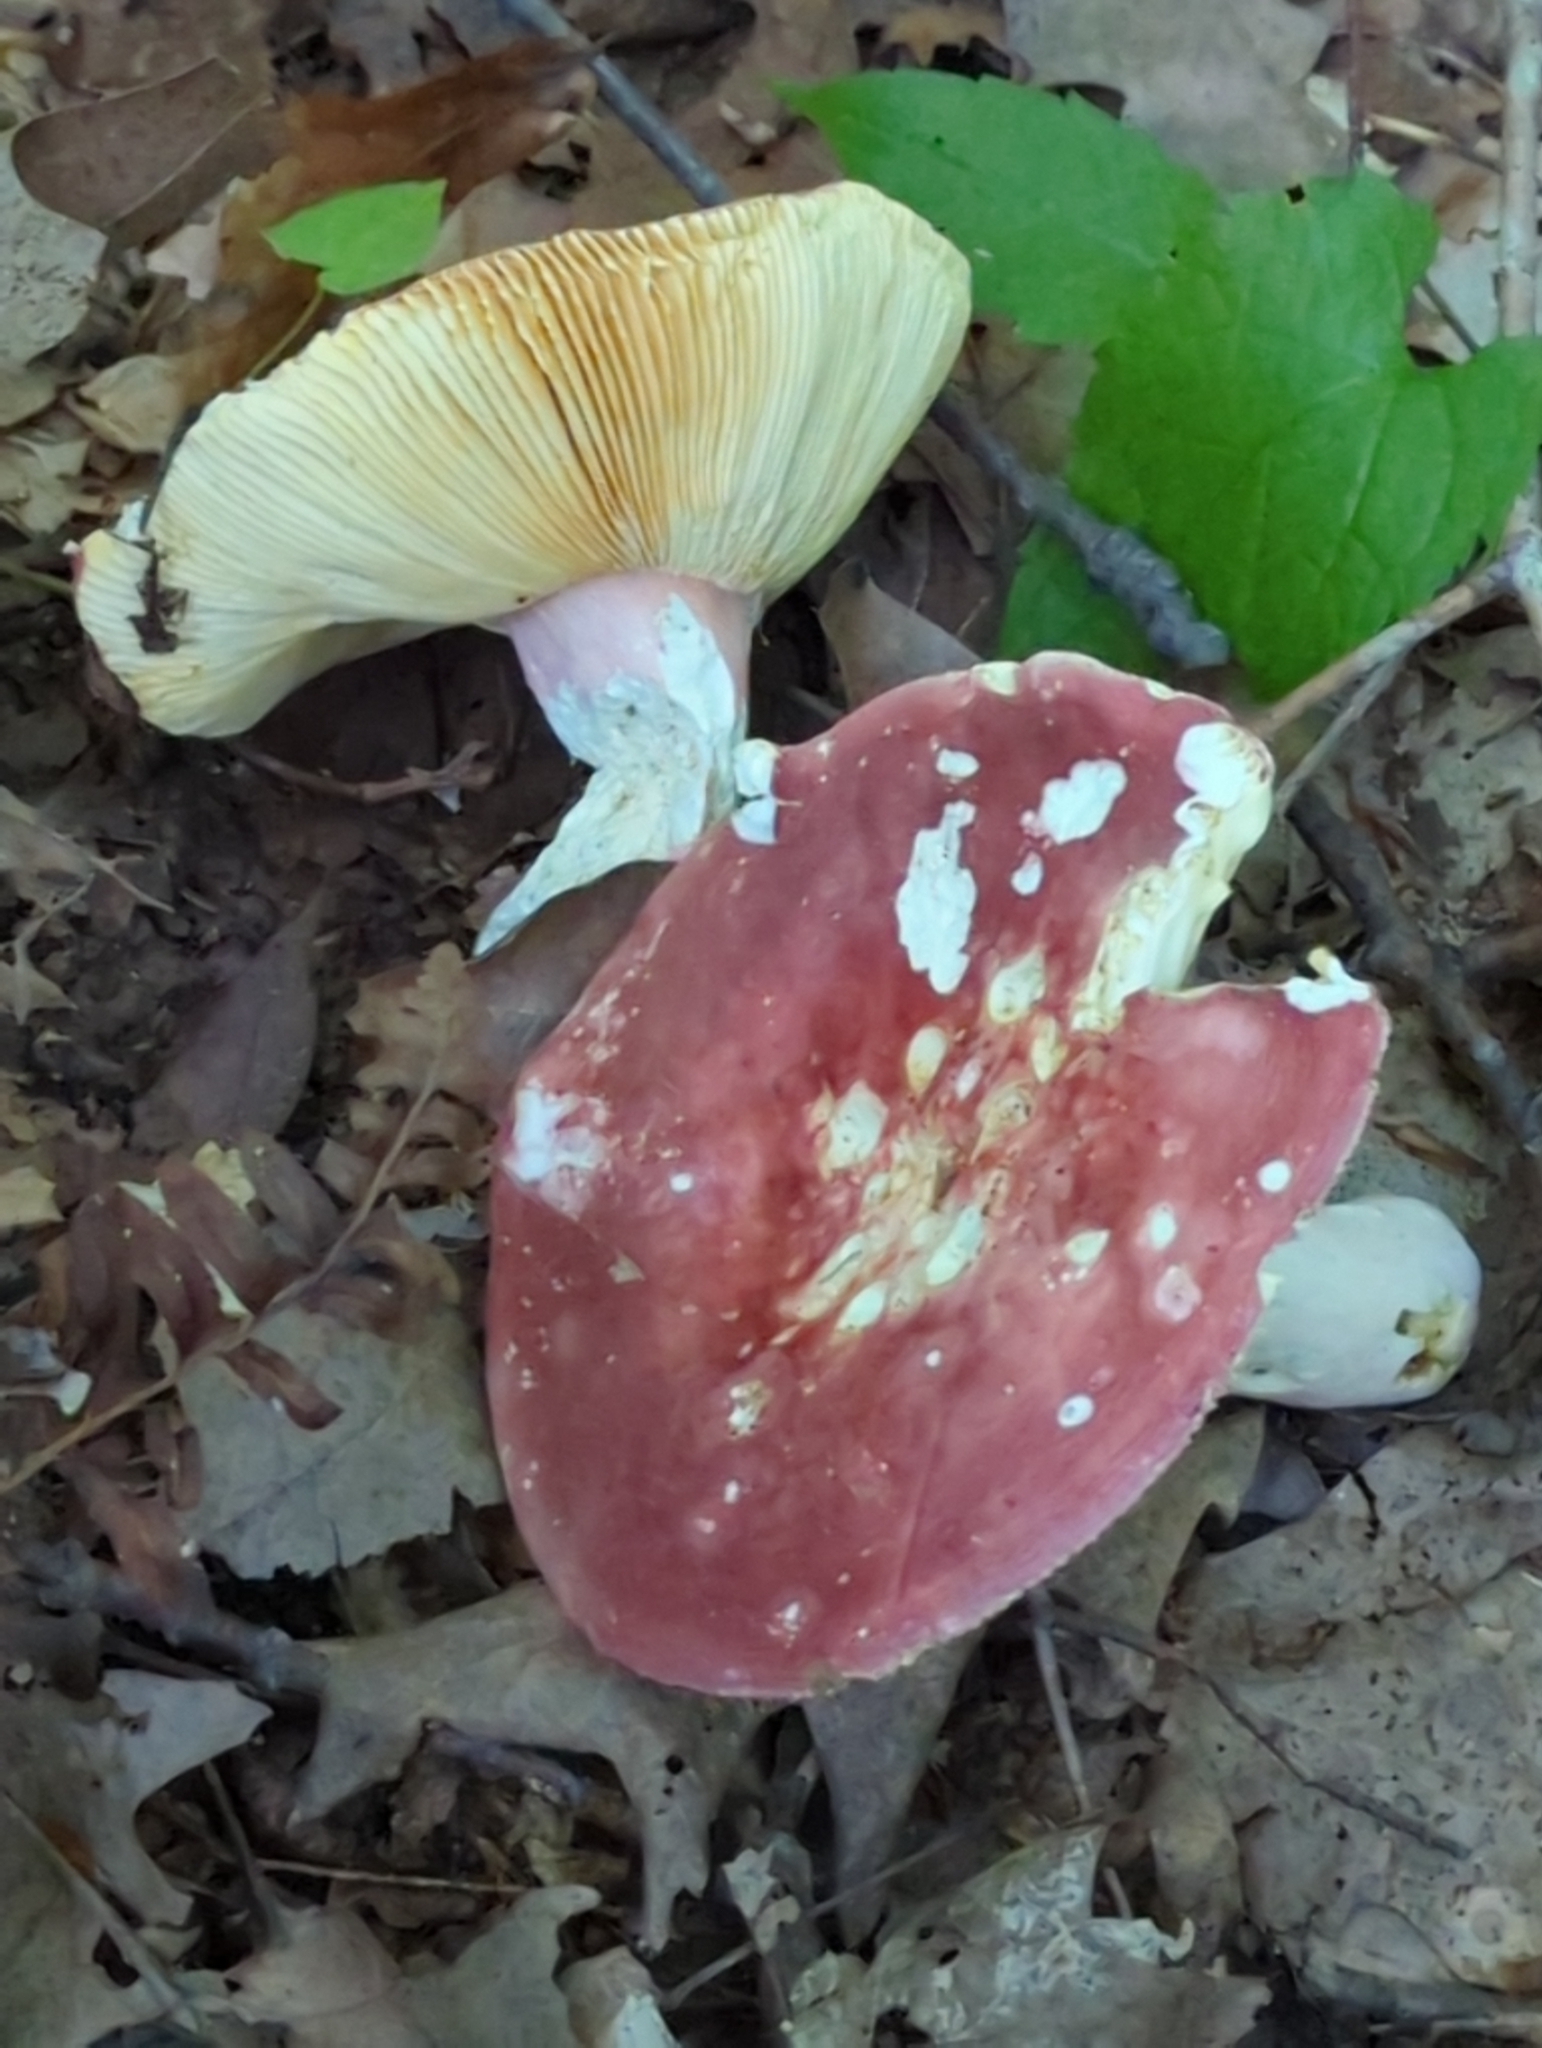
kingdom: Fungi
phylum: Basidiomycota
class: Agaricomycetes
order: Russulales
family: Russulaceae
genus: Russula
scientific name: Russula
